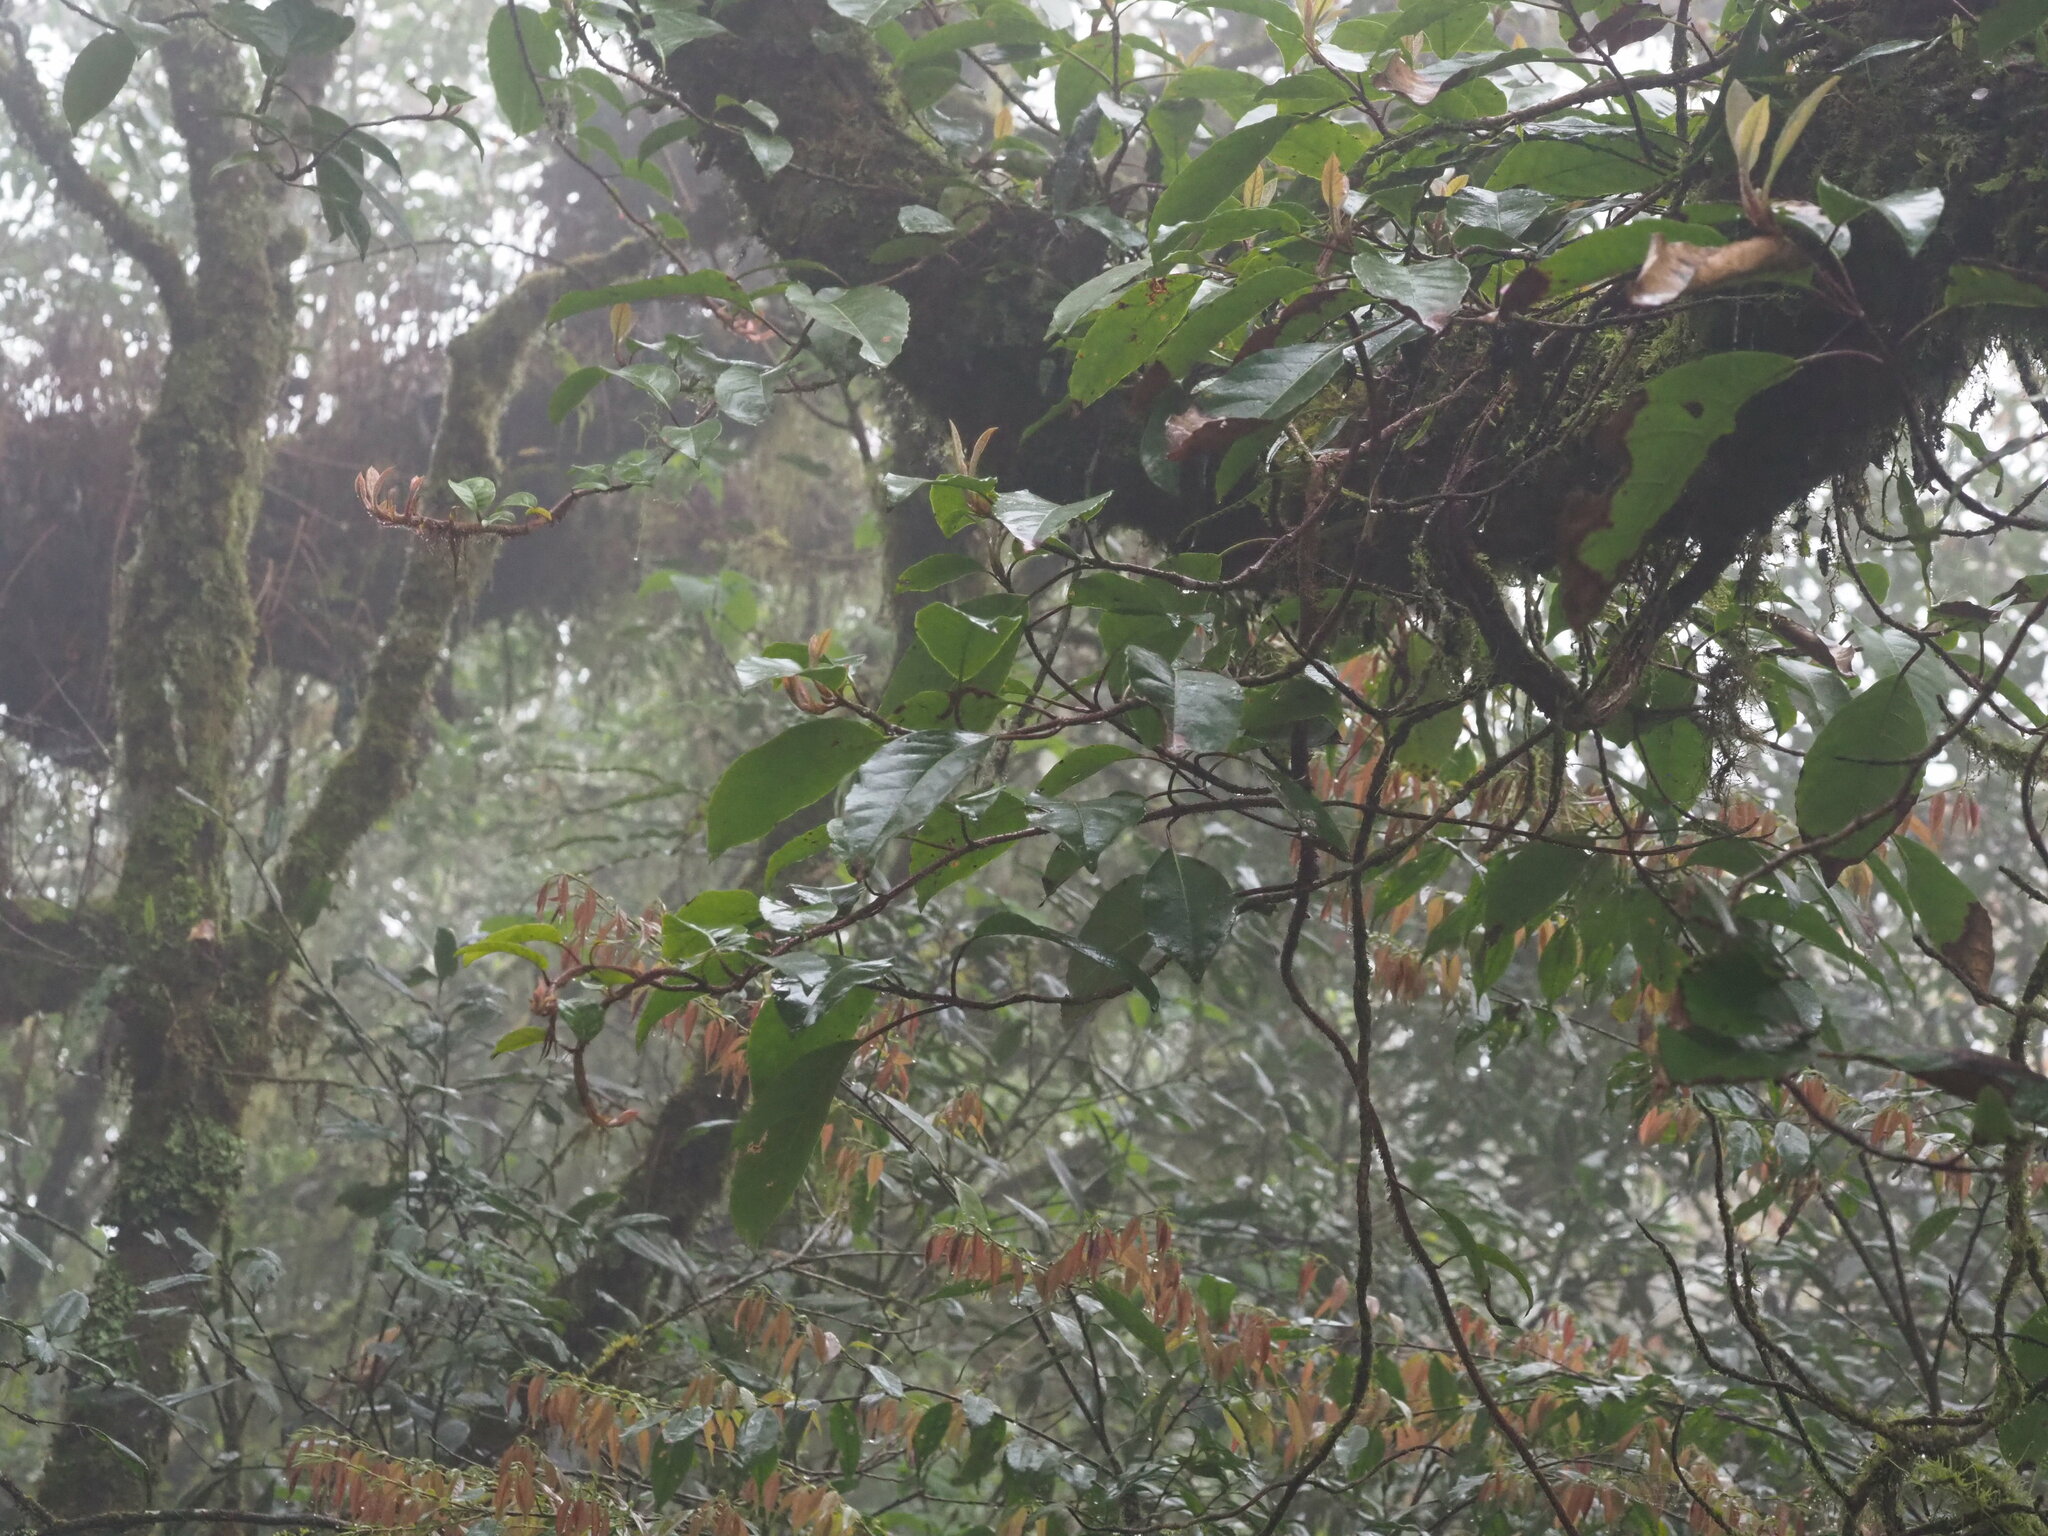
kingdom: Plantae
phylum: Tracheophyta
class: Magnoliopsida
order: Cornales
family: Hydrangeaceae
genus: Hydrangea
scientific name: Hydrangea integrifolia
